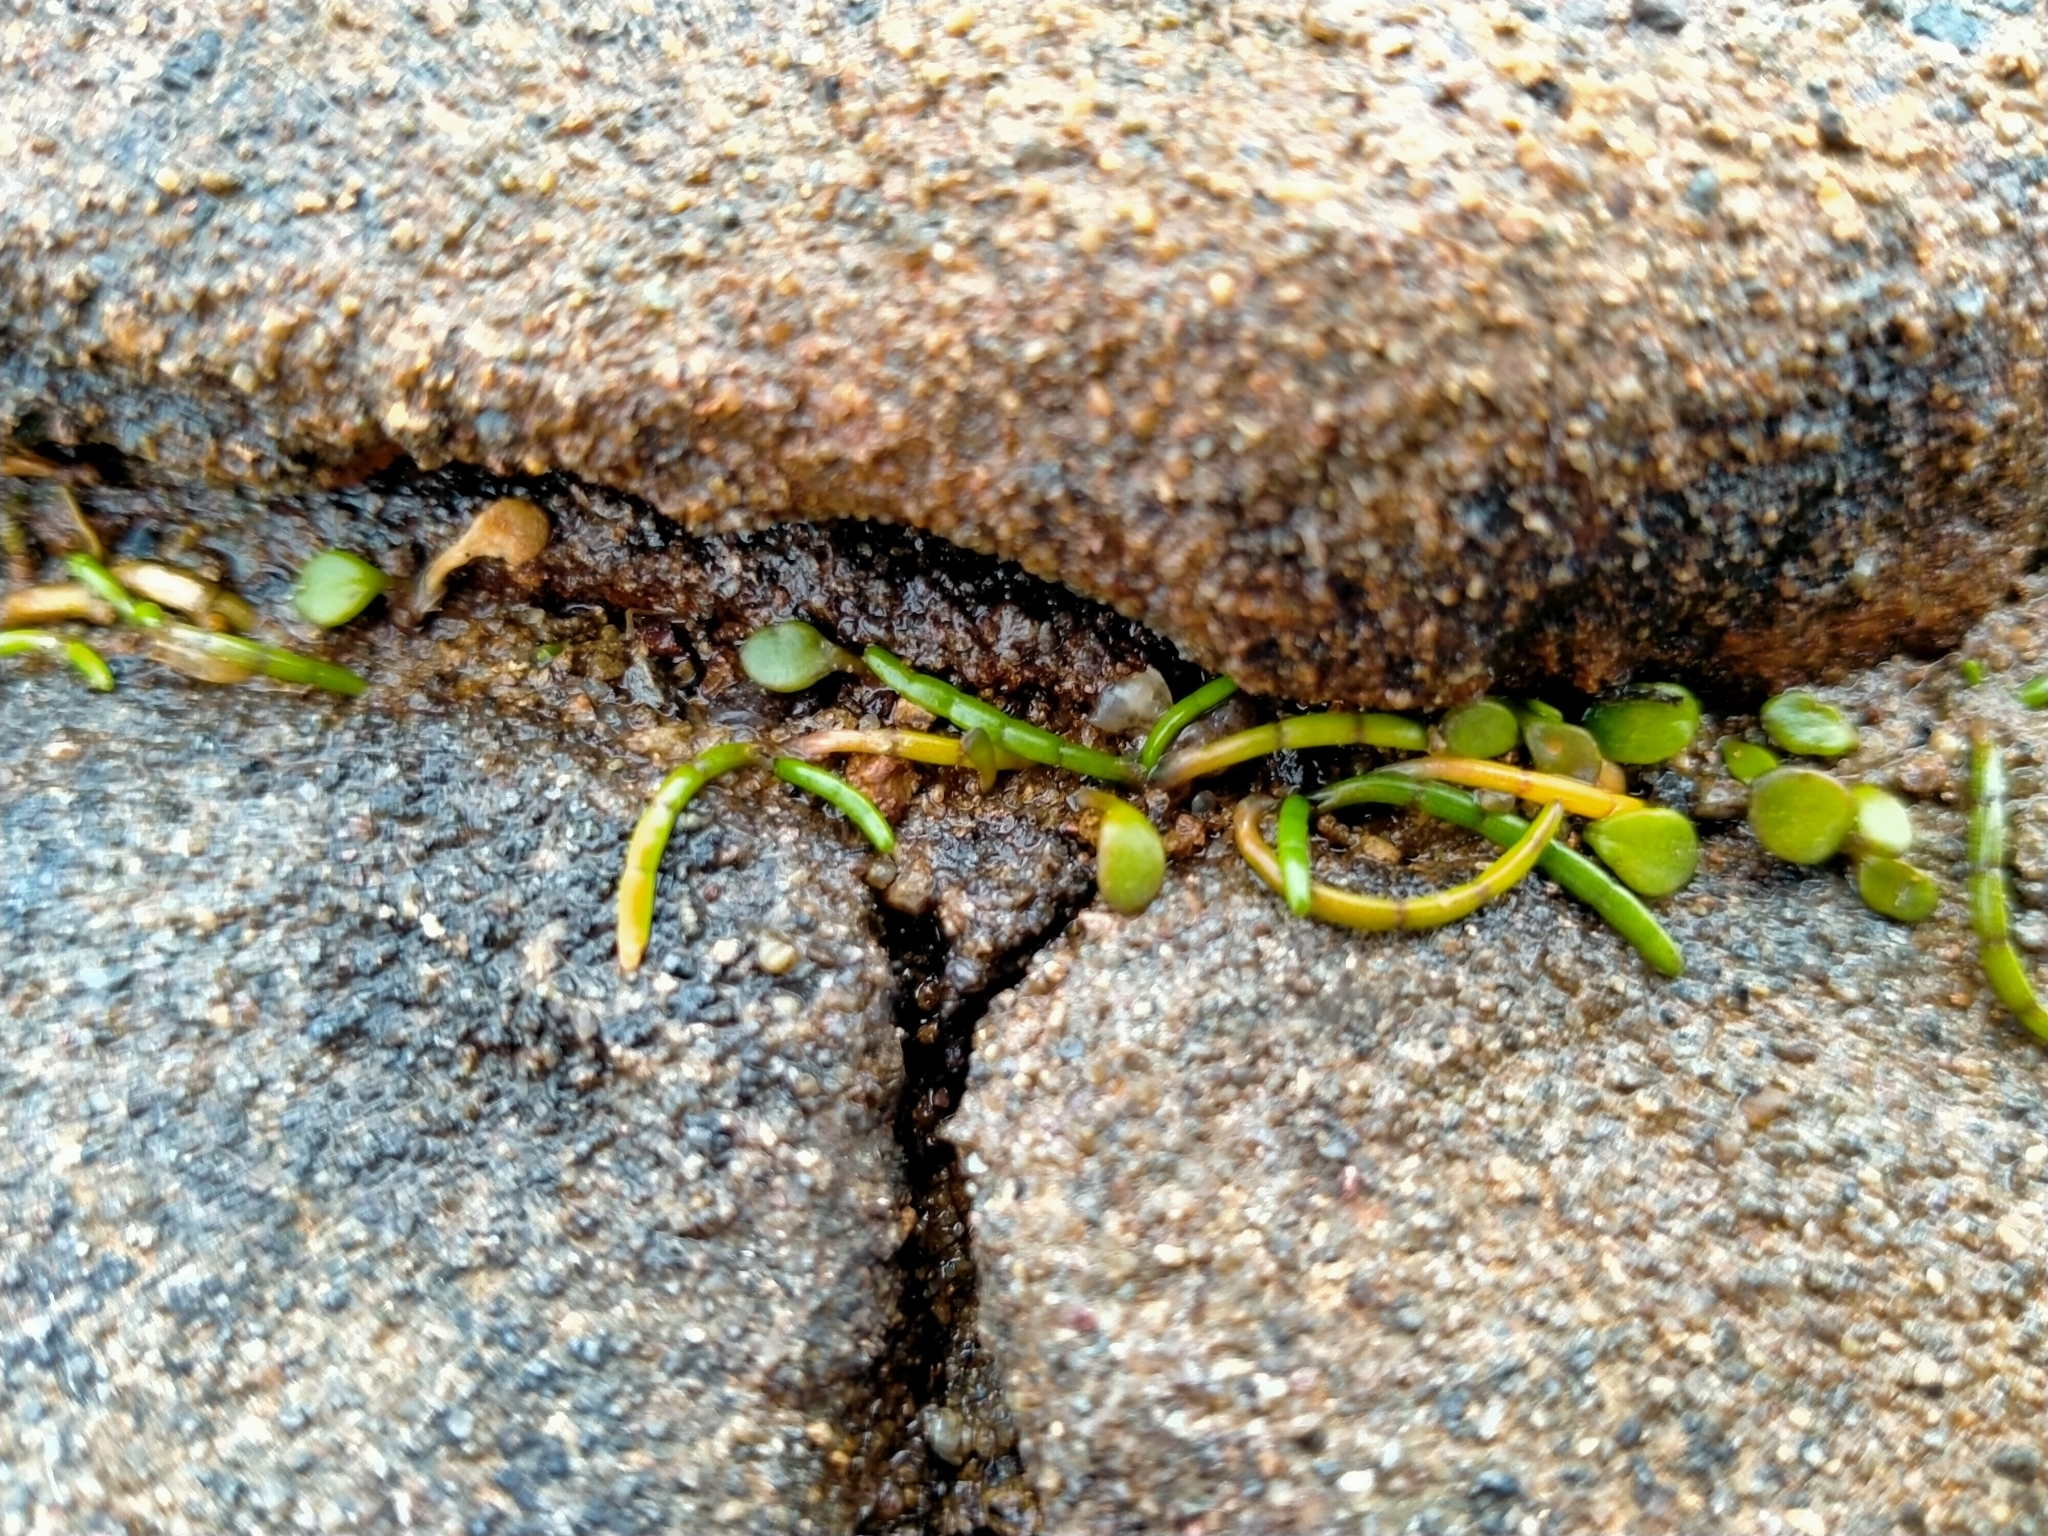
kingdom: Plantae
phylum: Tracheophyta
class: Magnoliopsida
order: Apiales
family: Apiaceae
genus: Lilaeopsis
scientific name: Lilaeopsis novae-zelandiae
